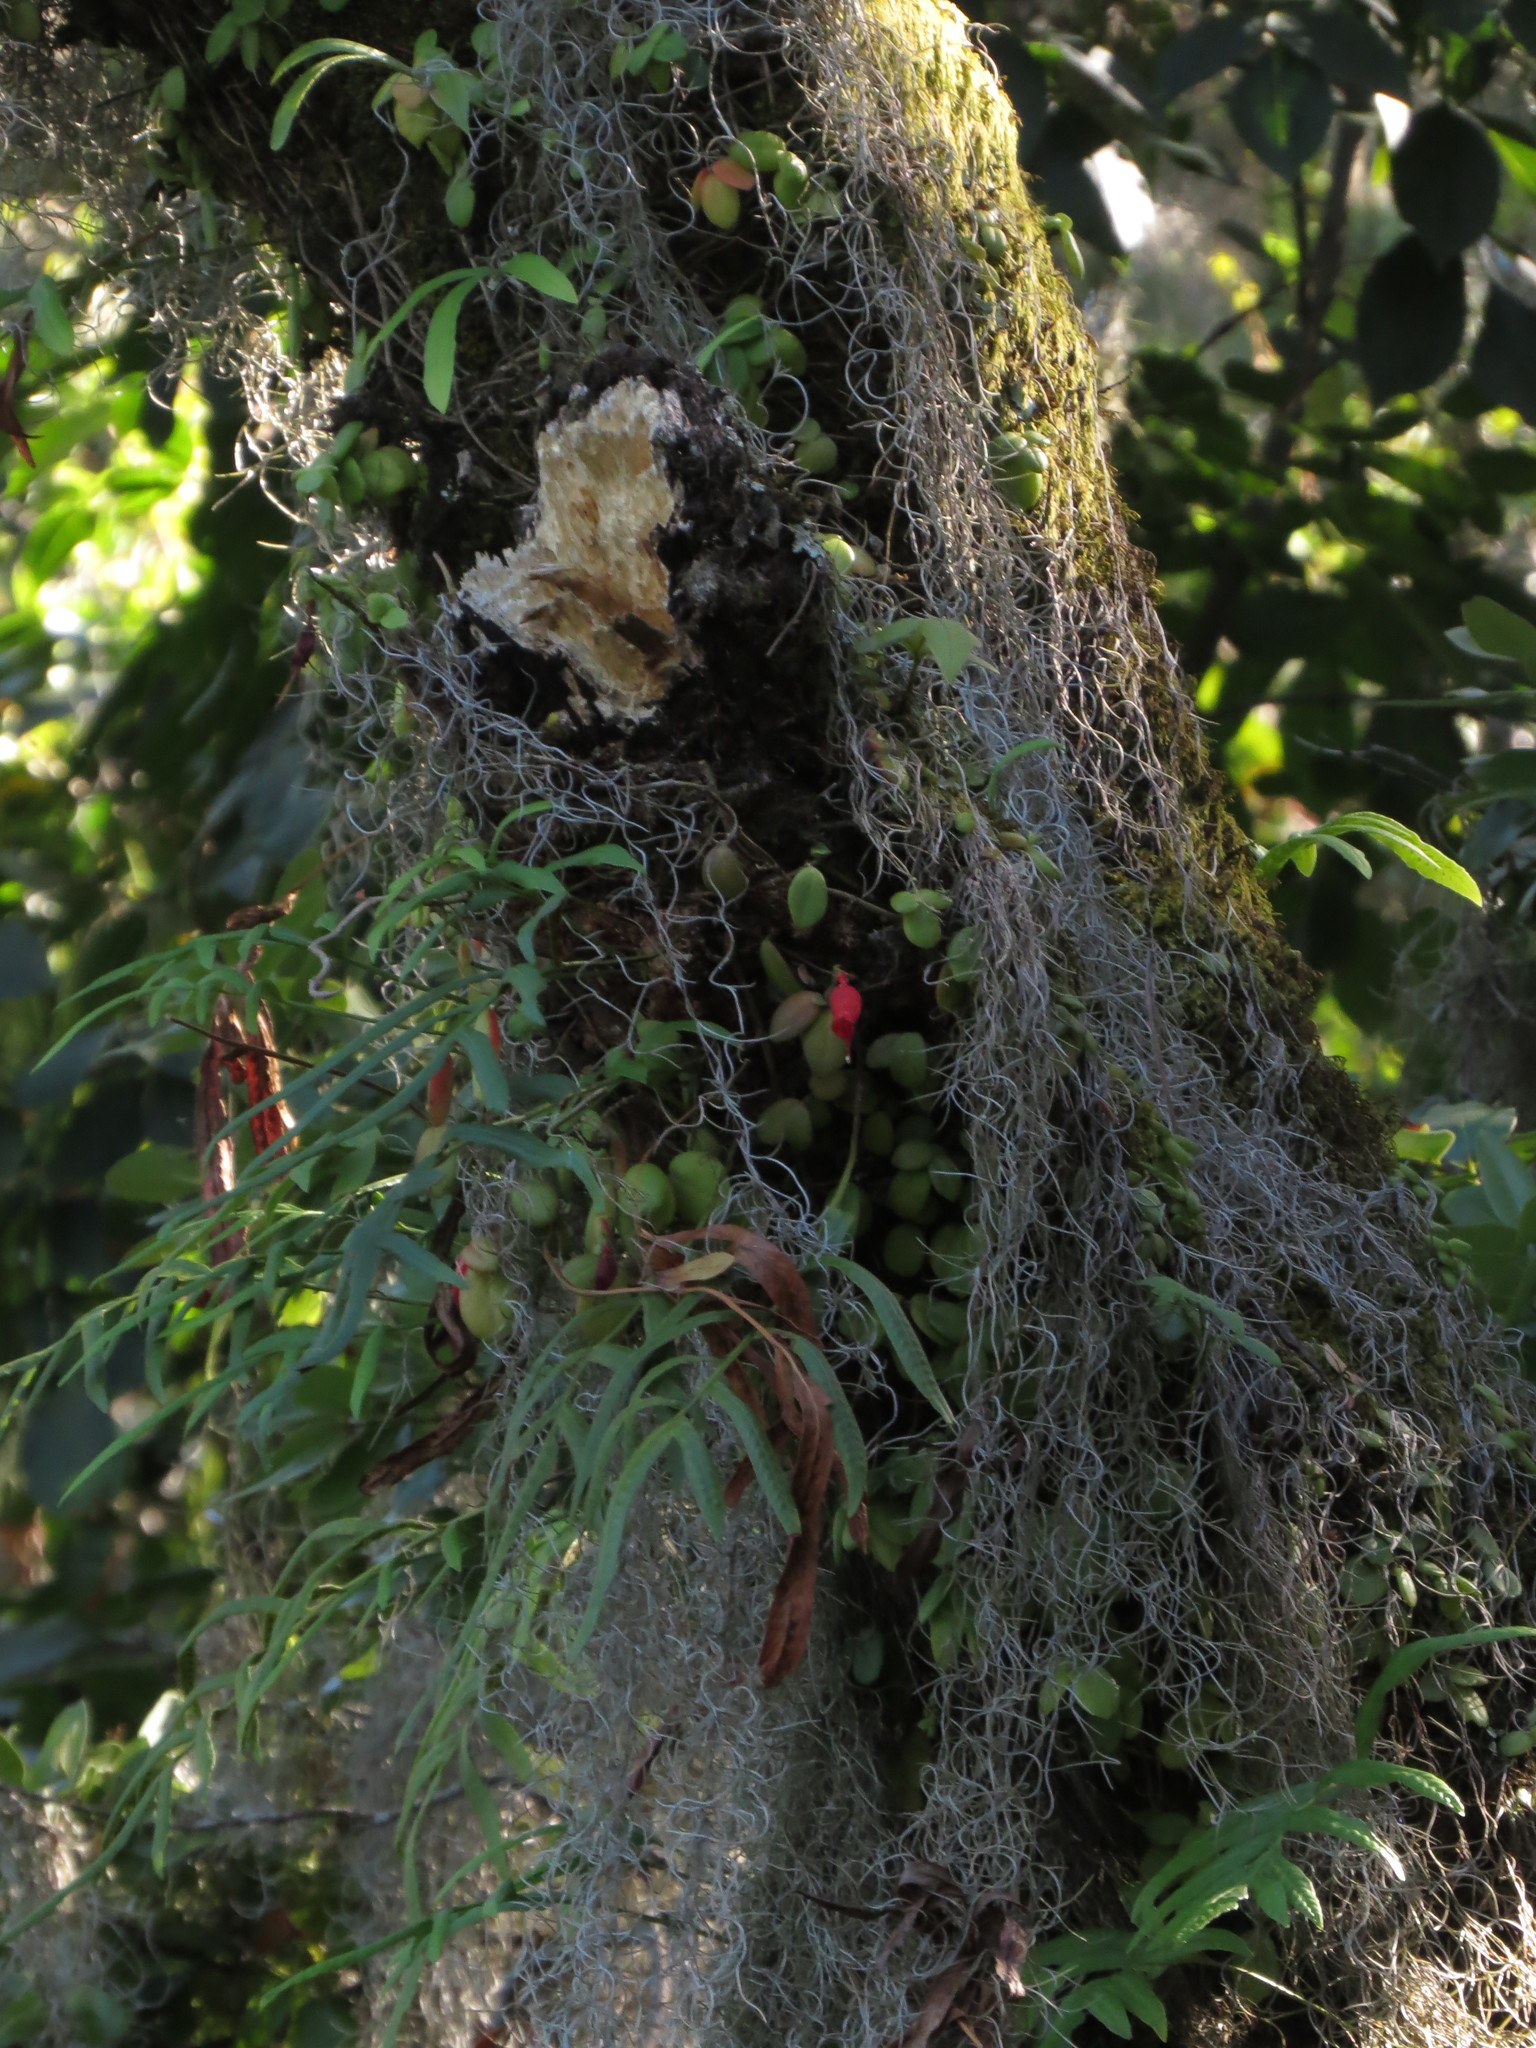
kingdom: Plantae
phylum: Tracheophyta
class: Polypodiopsida
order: Polypodiales
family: Polypodiaceae
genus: Synammia
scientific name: Synammia feuillei
